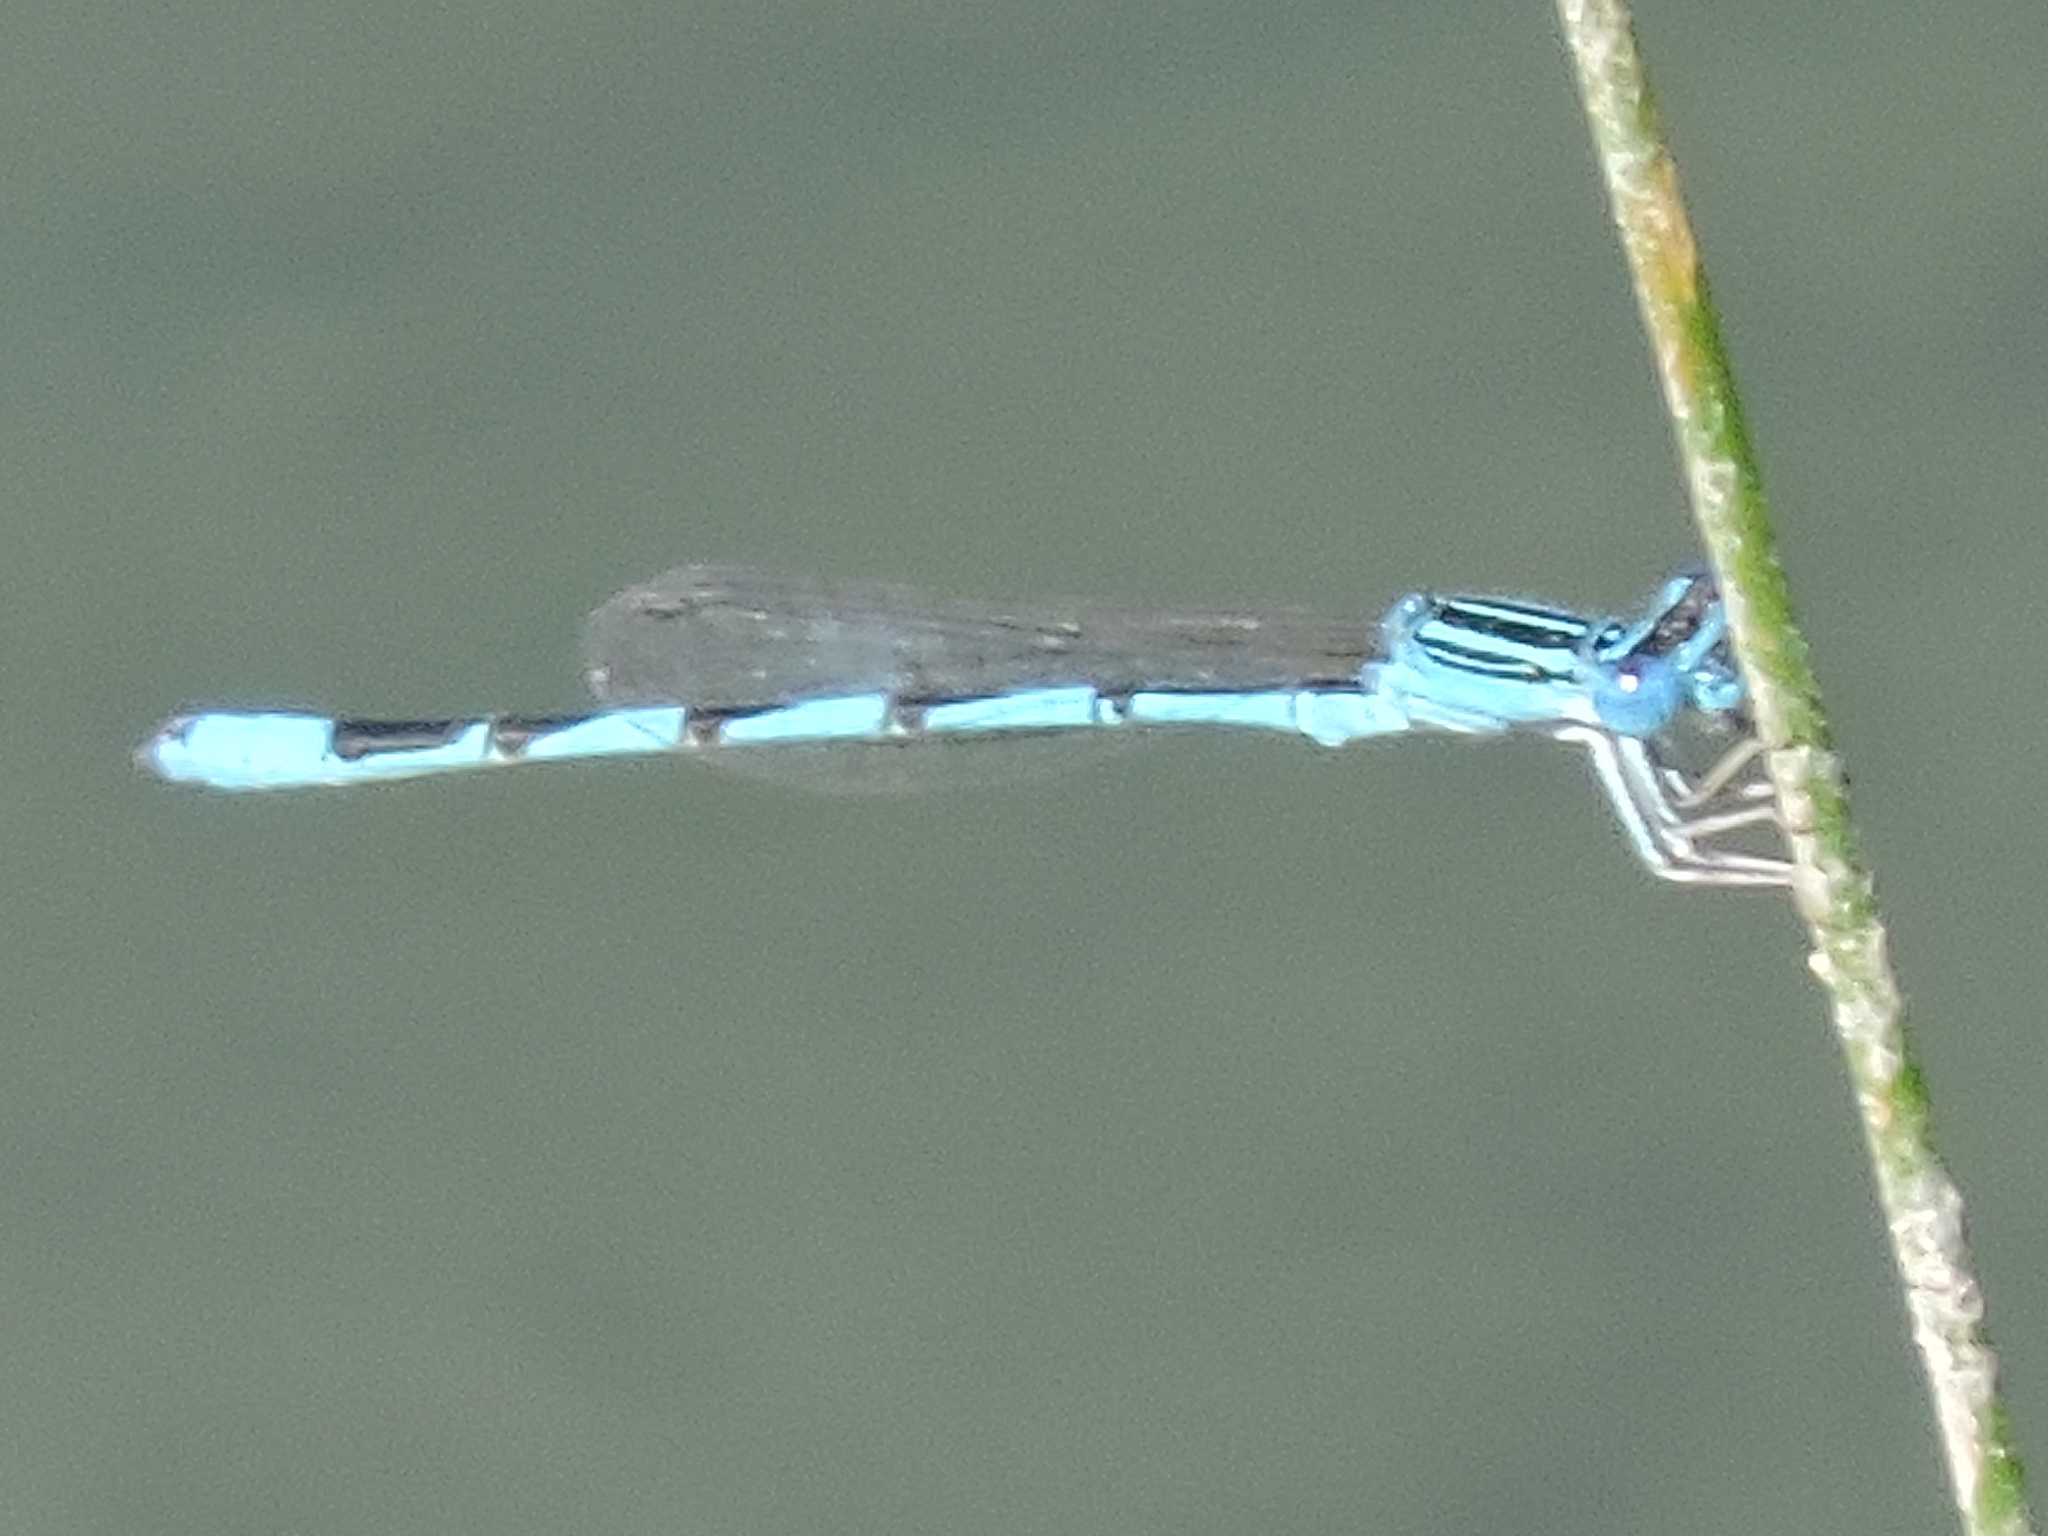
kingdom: Animalia
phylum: Arthropoda
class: Insecta
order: Odonata
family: Coenagrionidae
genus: Enallagma
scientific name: Enallagma basidens
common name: Double-striped bluet
